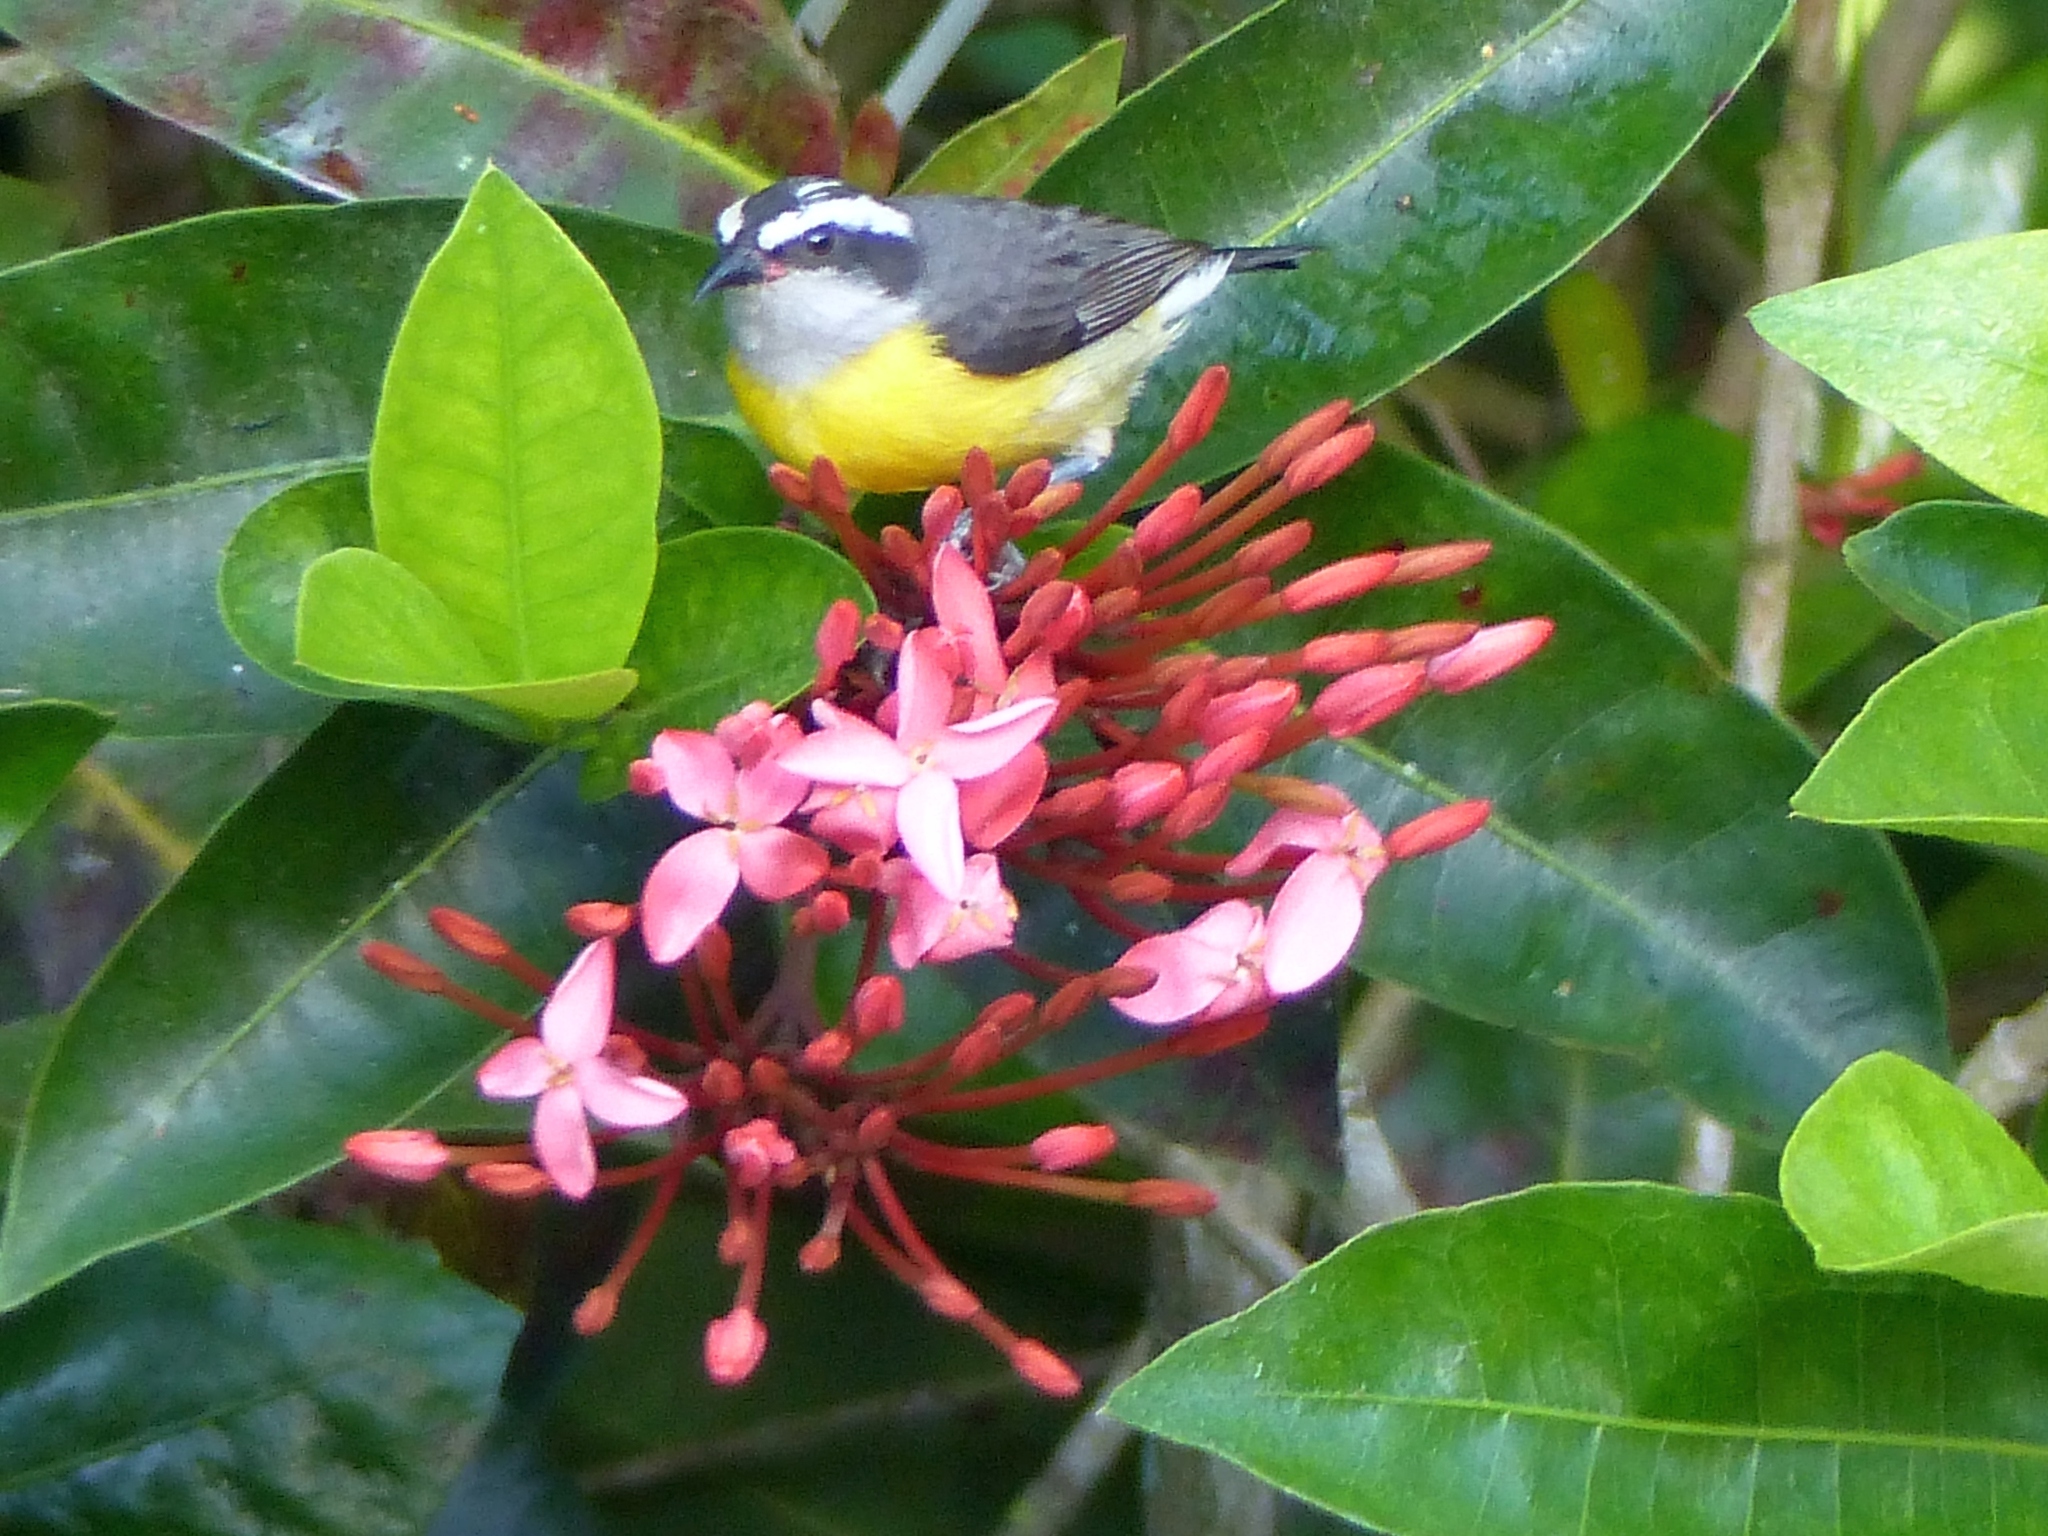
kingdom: Animalia
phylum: Chordata
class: Aves
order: Passeriformes
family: Thraupidae
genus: Coereba
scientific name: Coereba flaveola
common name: Bananaquit
